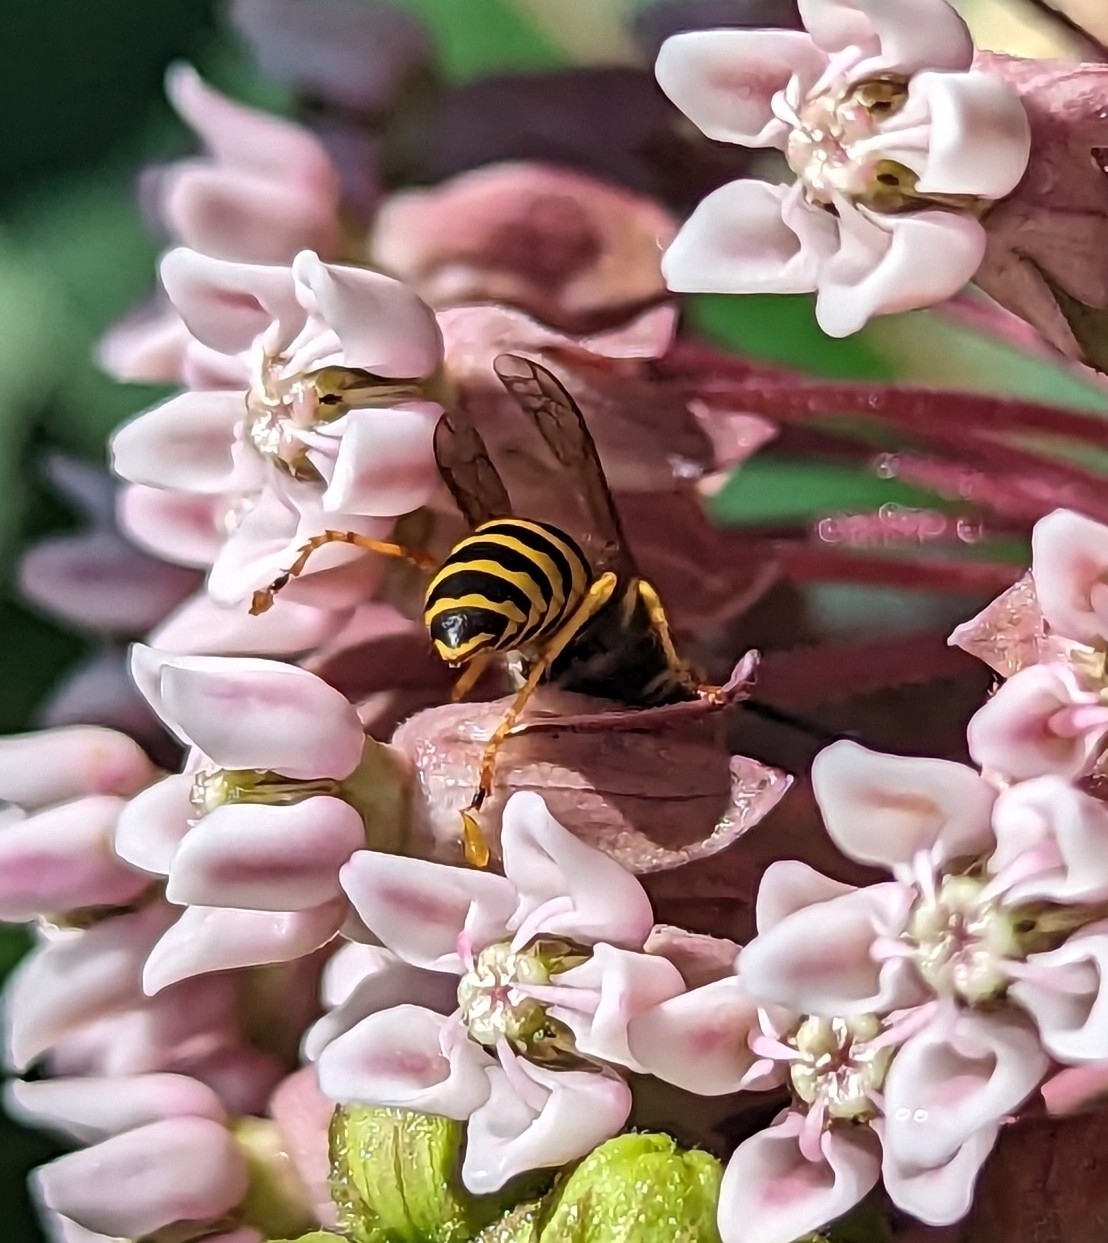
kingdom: Animalia
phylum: Arthropoda
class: Insecta
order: Hymenoptera
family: Vespidae
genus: Vespula
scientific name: Vespula
